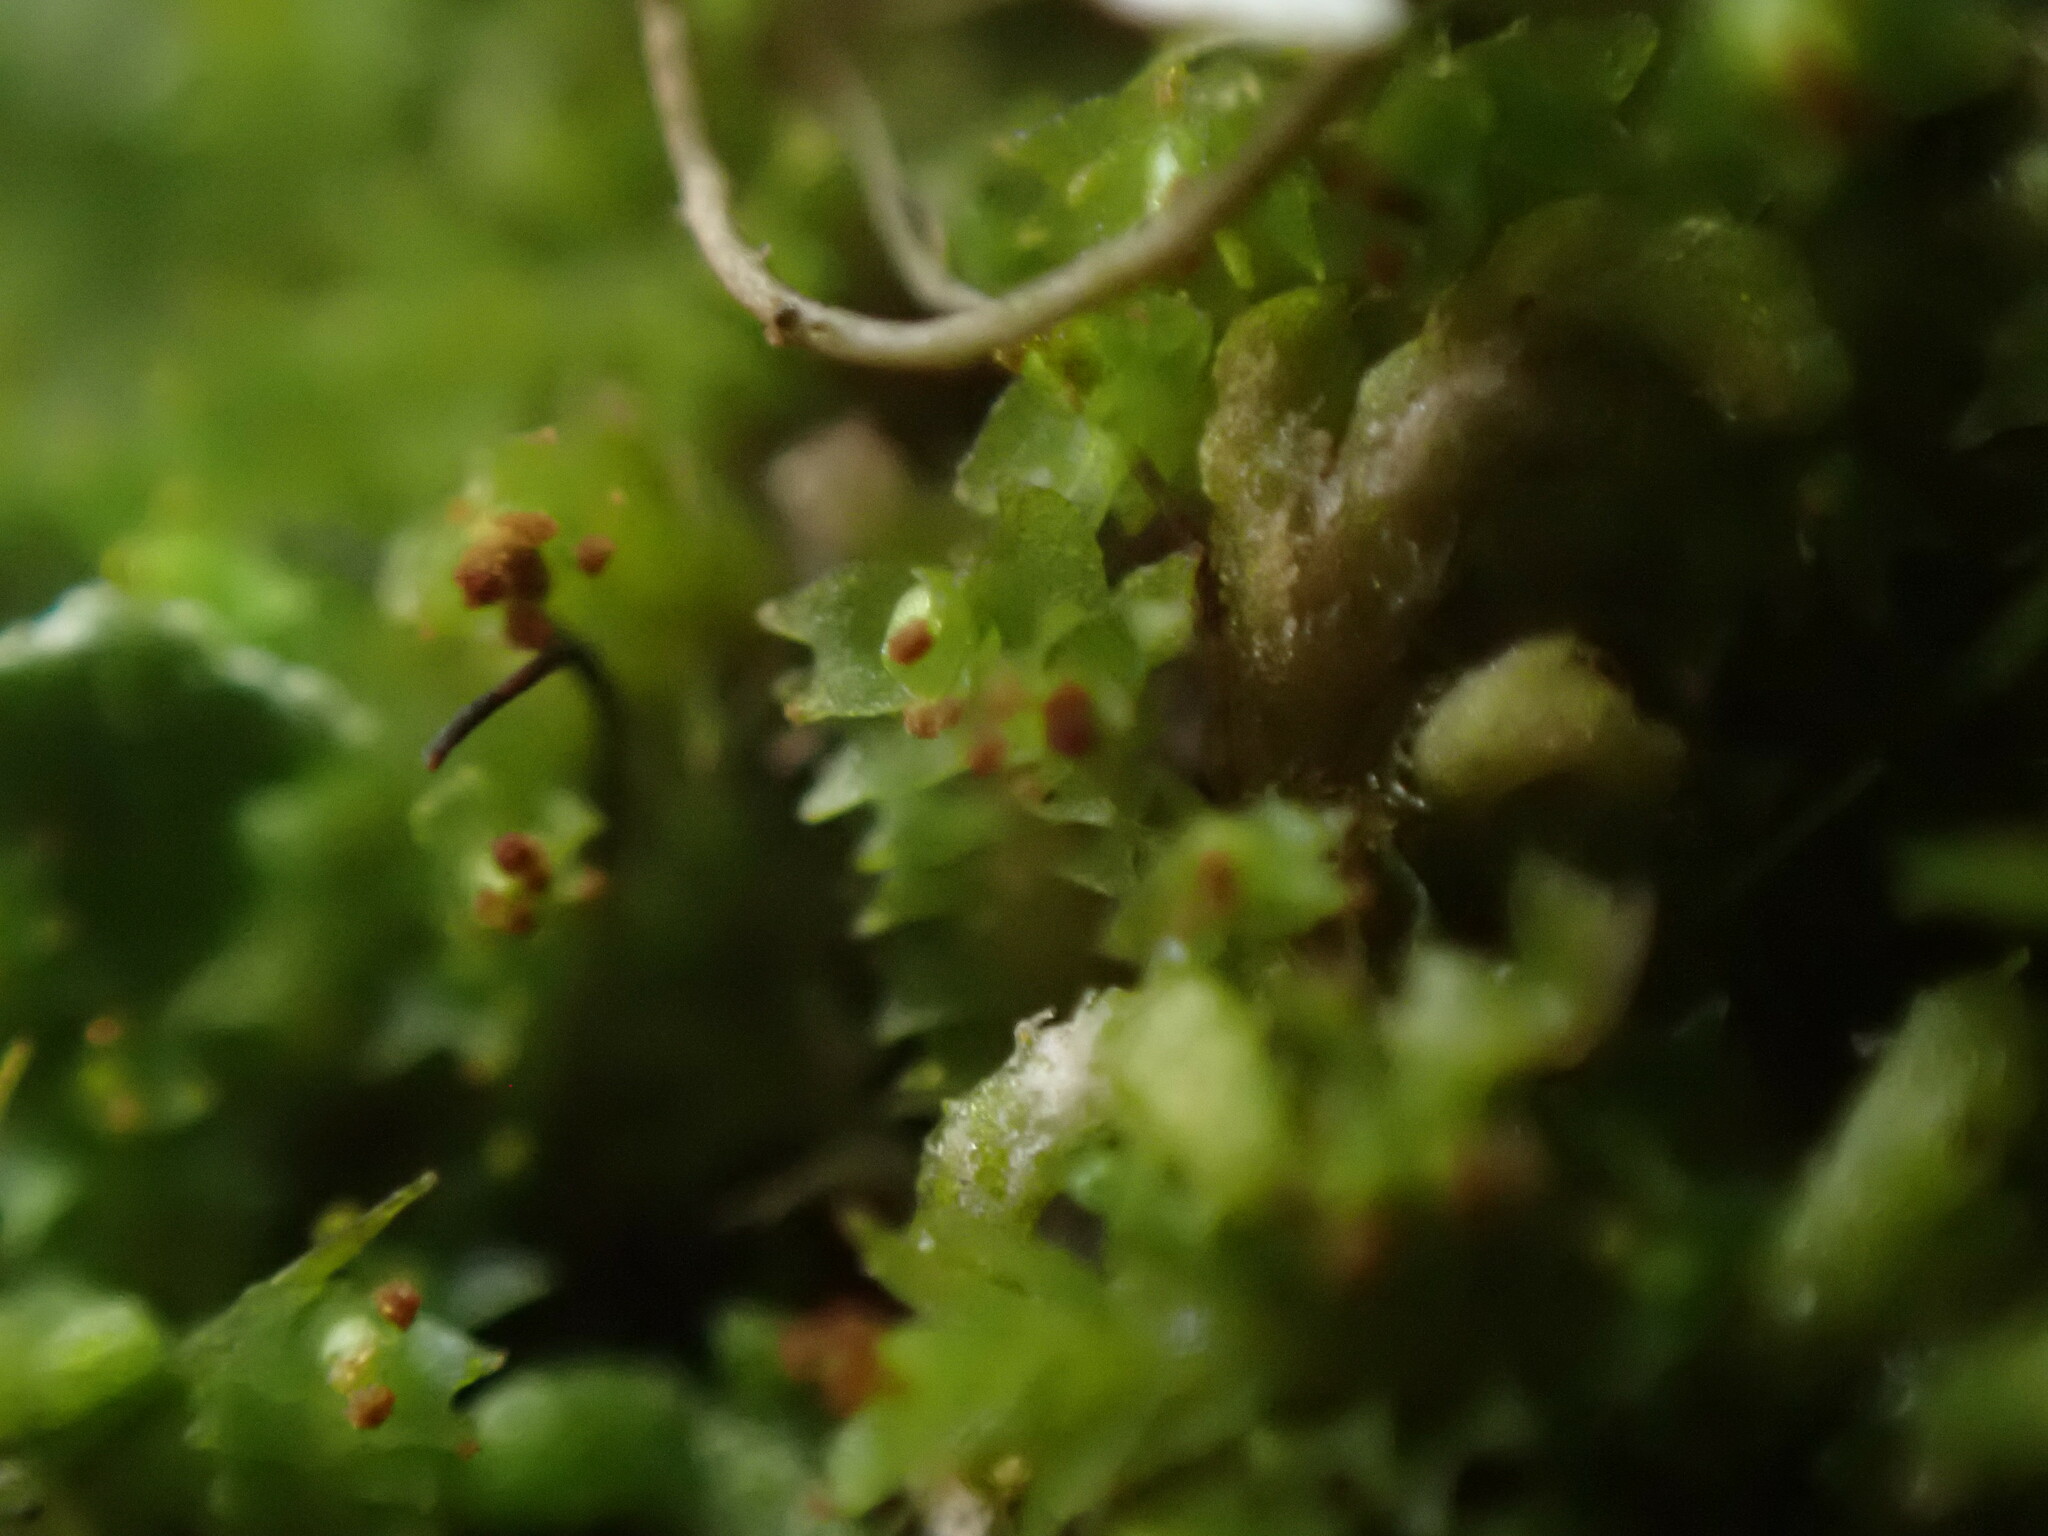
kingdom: Plantae
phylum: Marchantiophyta
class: Jungermanniopsida
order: Jungermanniales
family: Lophoziaceae
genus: Lophoziopsis
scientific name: Lophoziopsis longidens
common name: Horned notchwort
